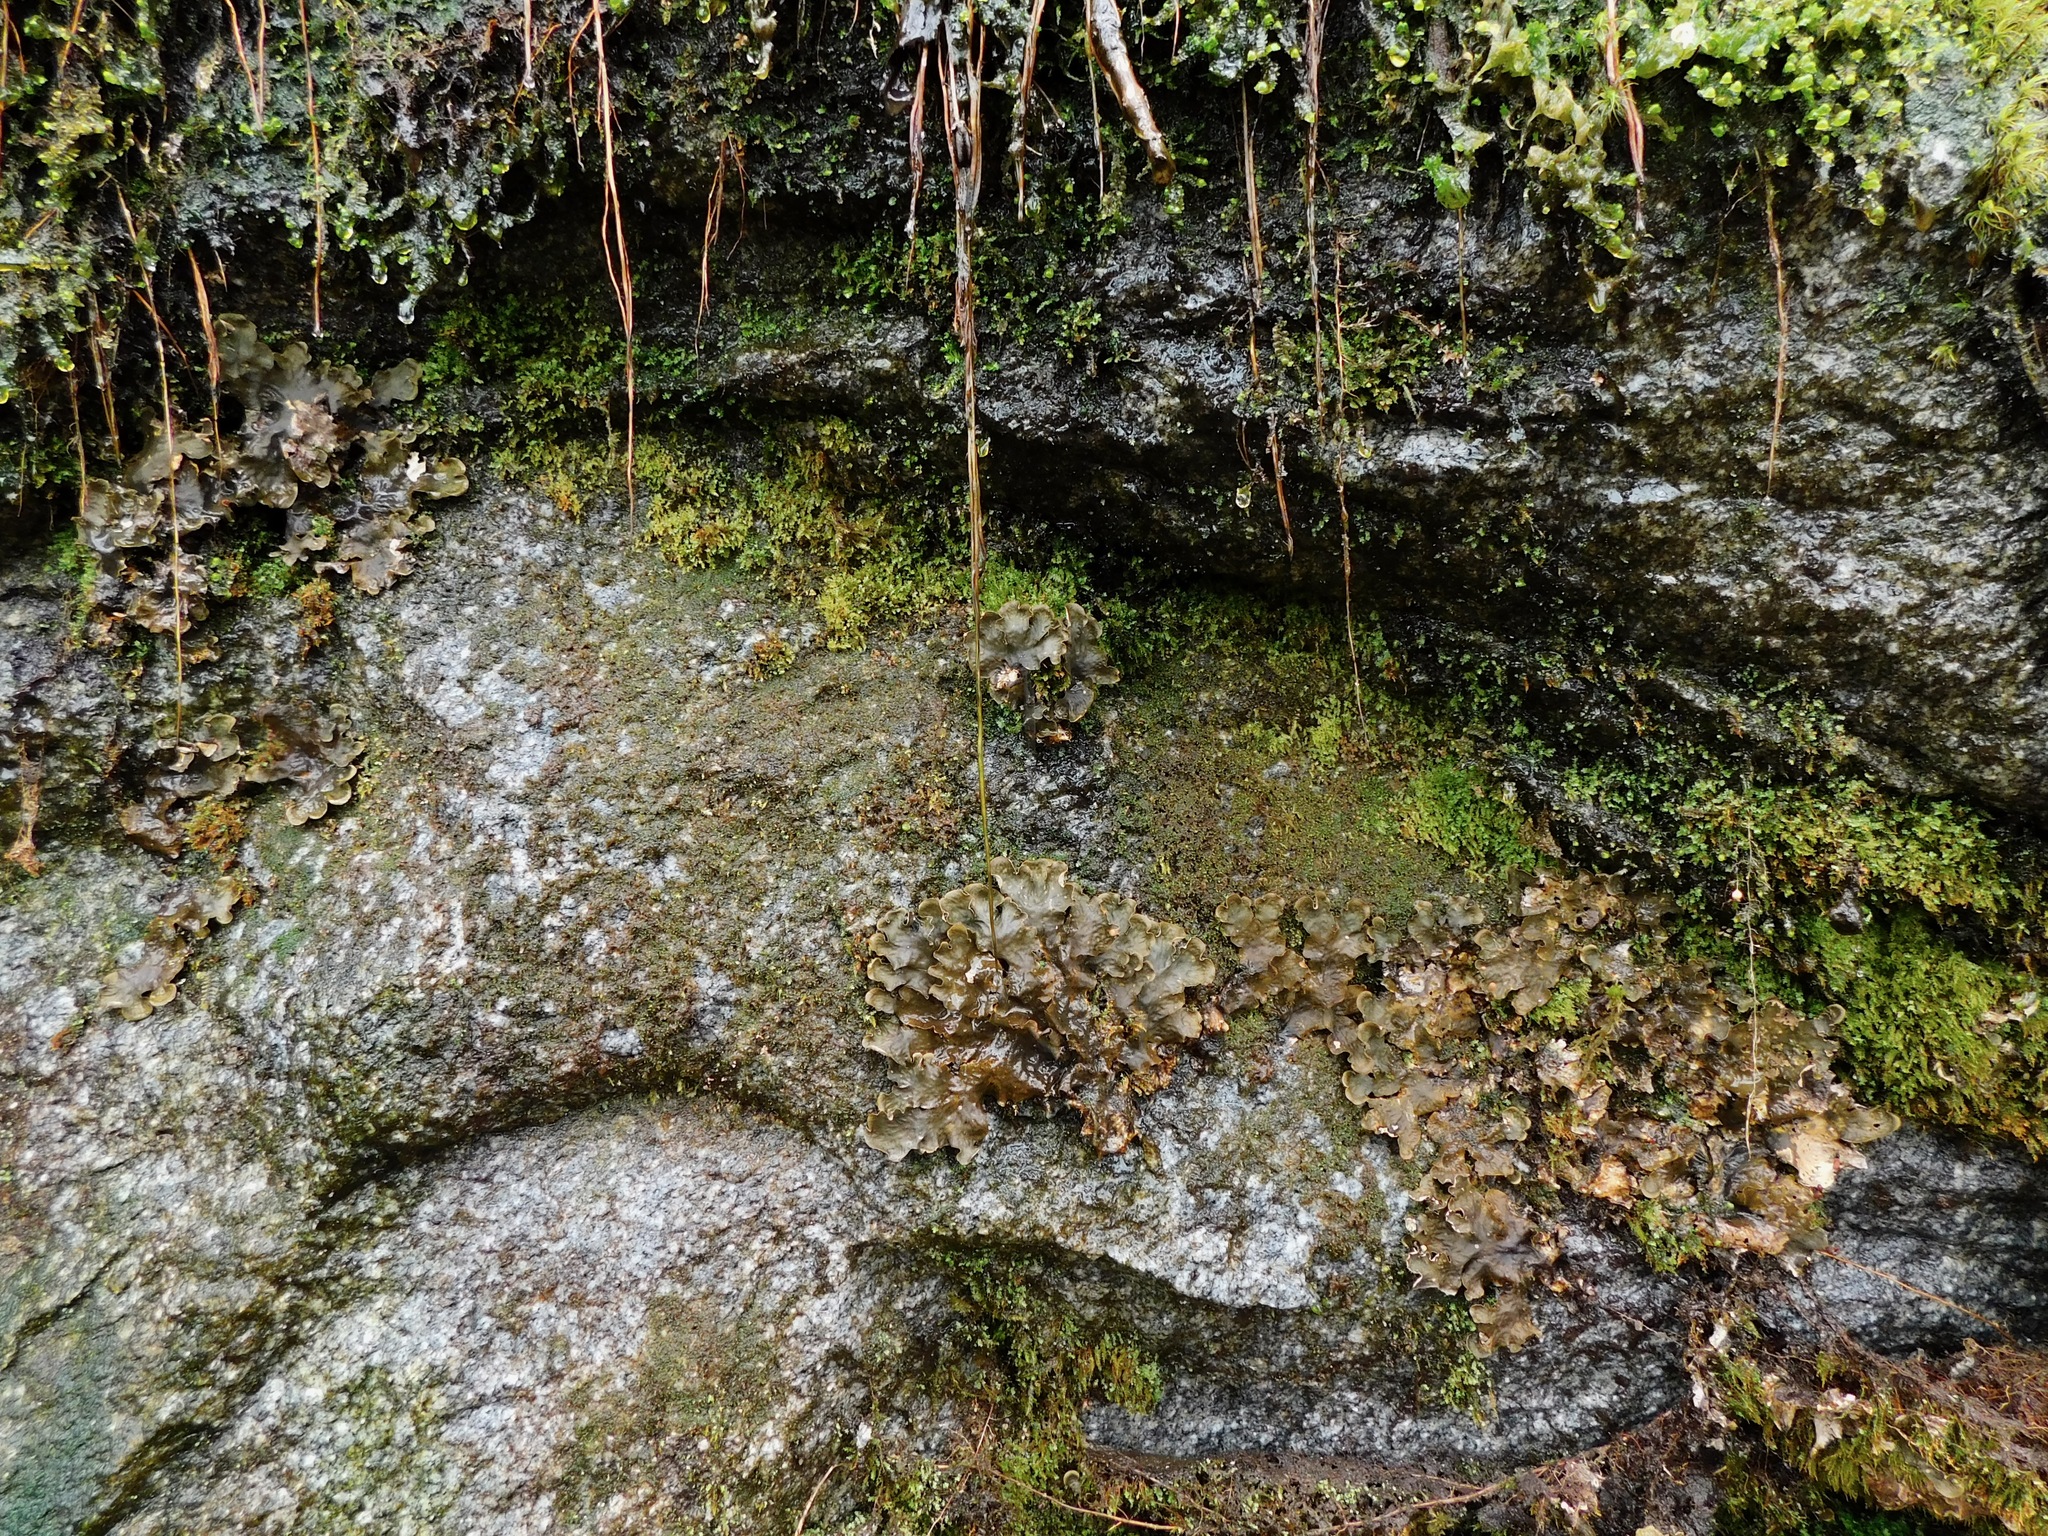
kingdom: Fungi
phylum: Ascomycota
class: Lecanoromycetes
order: Peltigerales
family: Peltigeraceae
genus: Peltigera
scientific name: Peltigera membranacea
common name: Membranous pelt lichen
